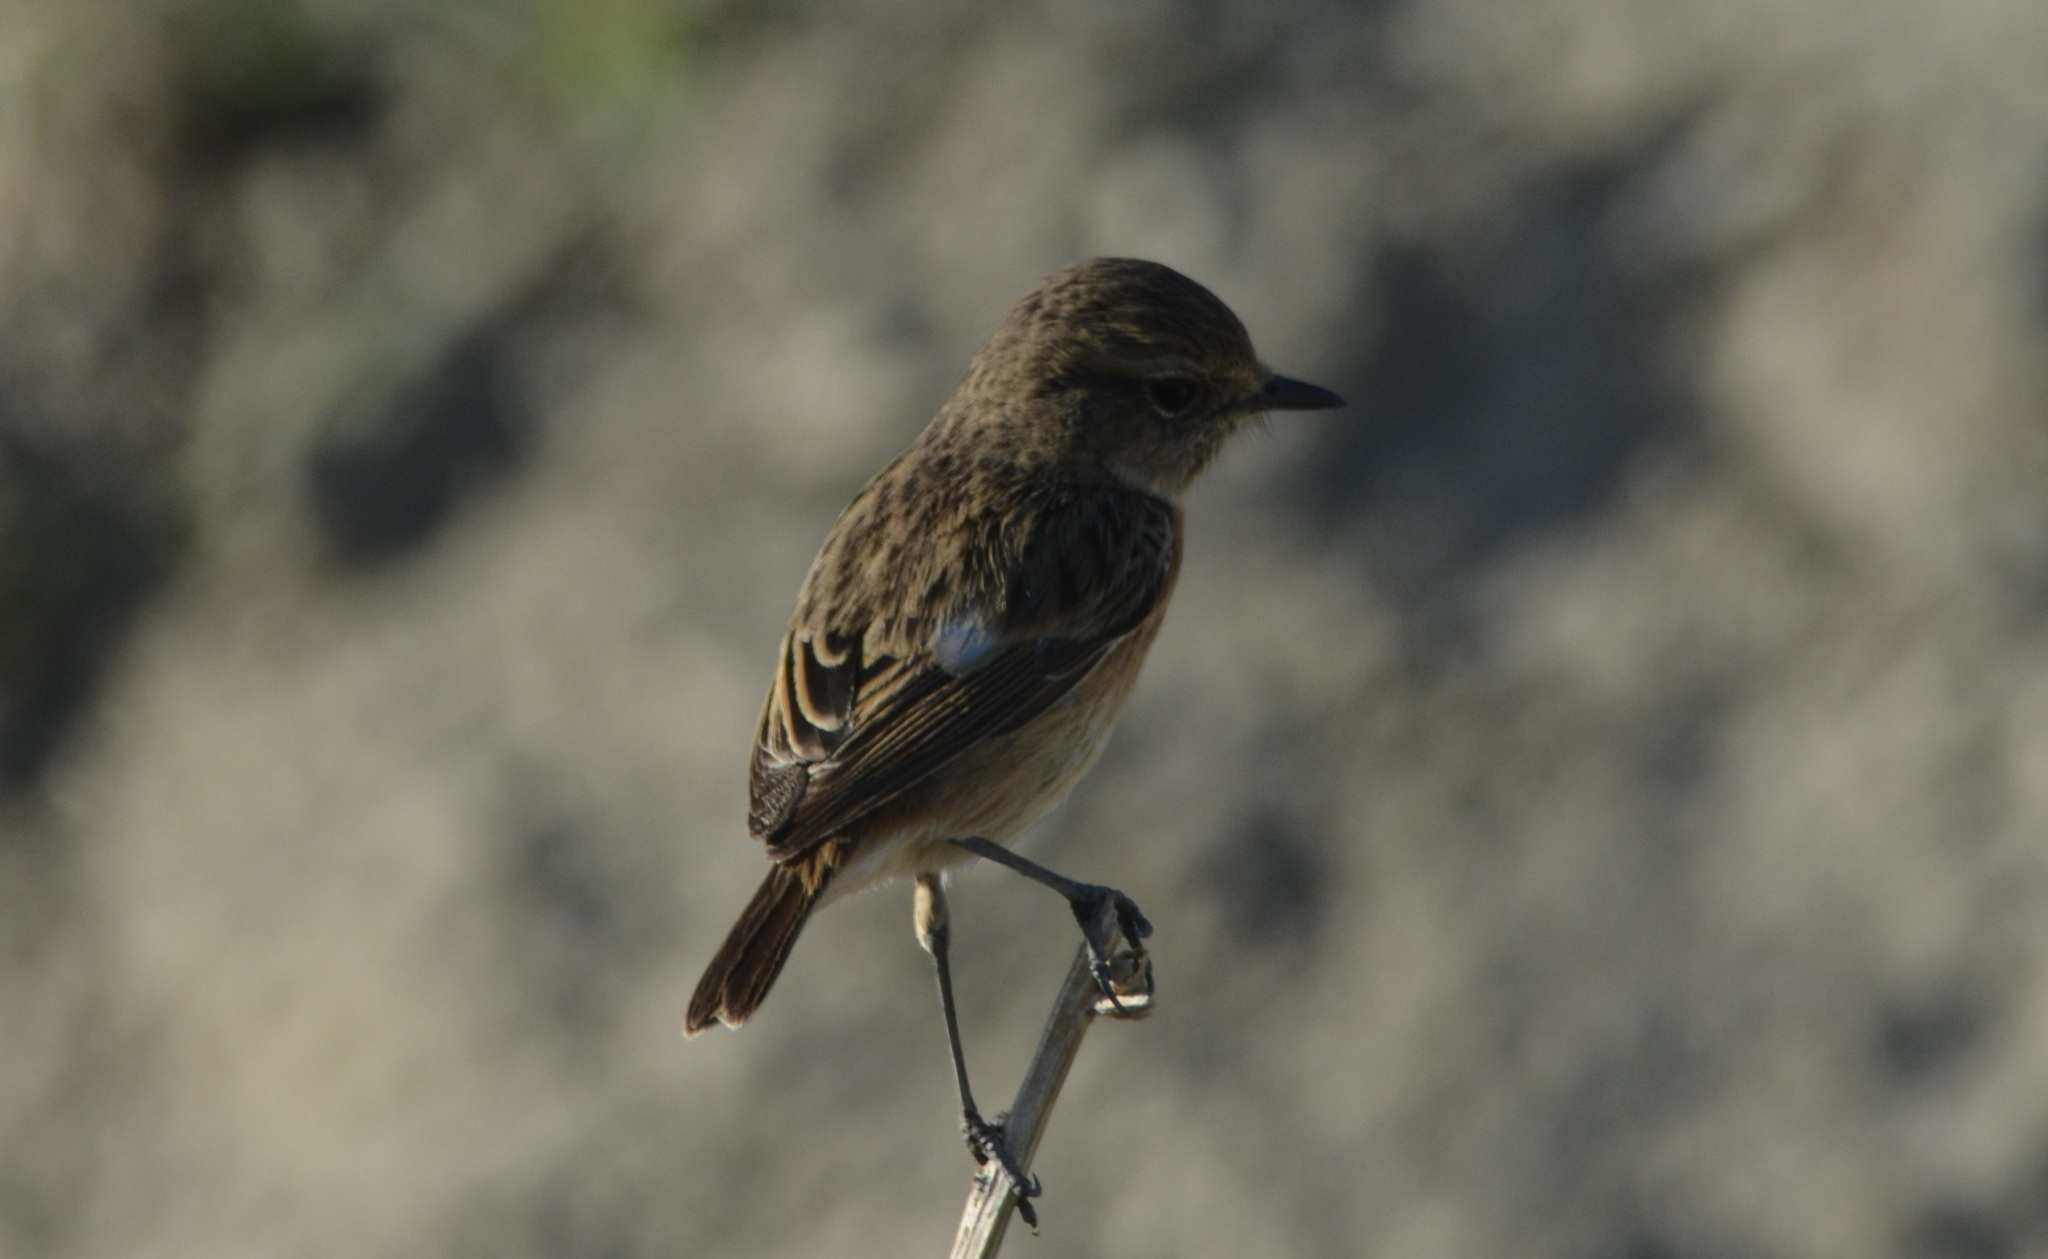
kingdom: Animalia
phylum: Chordata
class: Aves
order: Passeriformes
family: Muscicapidae
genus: Saxicola
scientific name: Saxicola rubicola
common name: European stonechat
